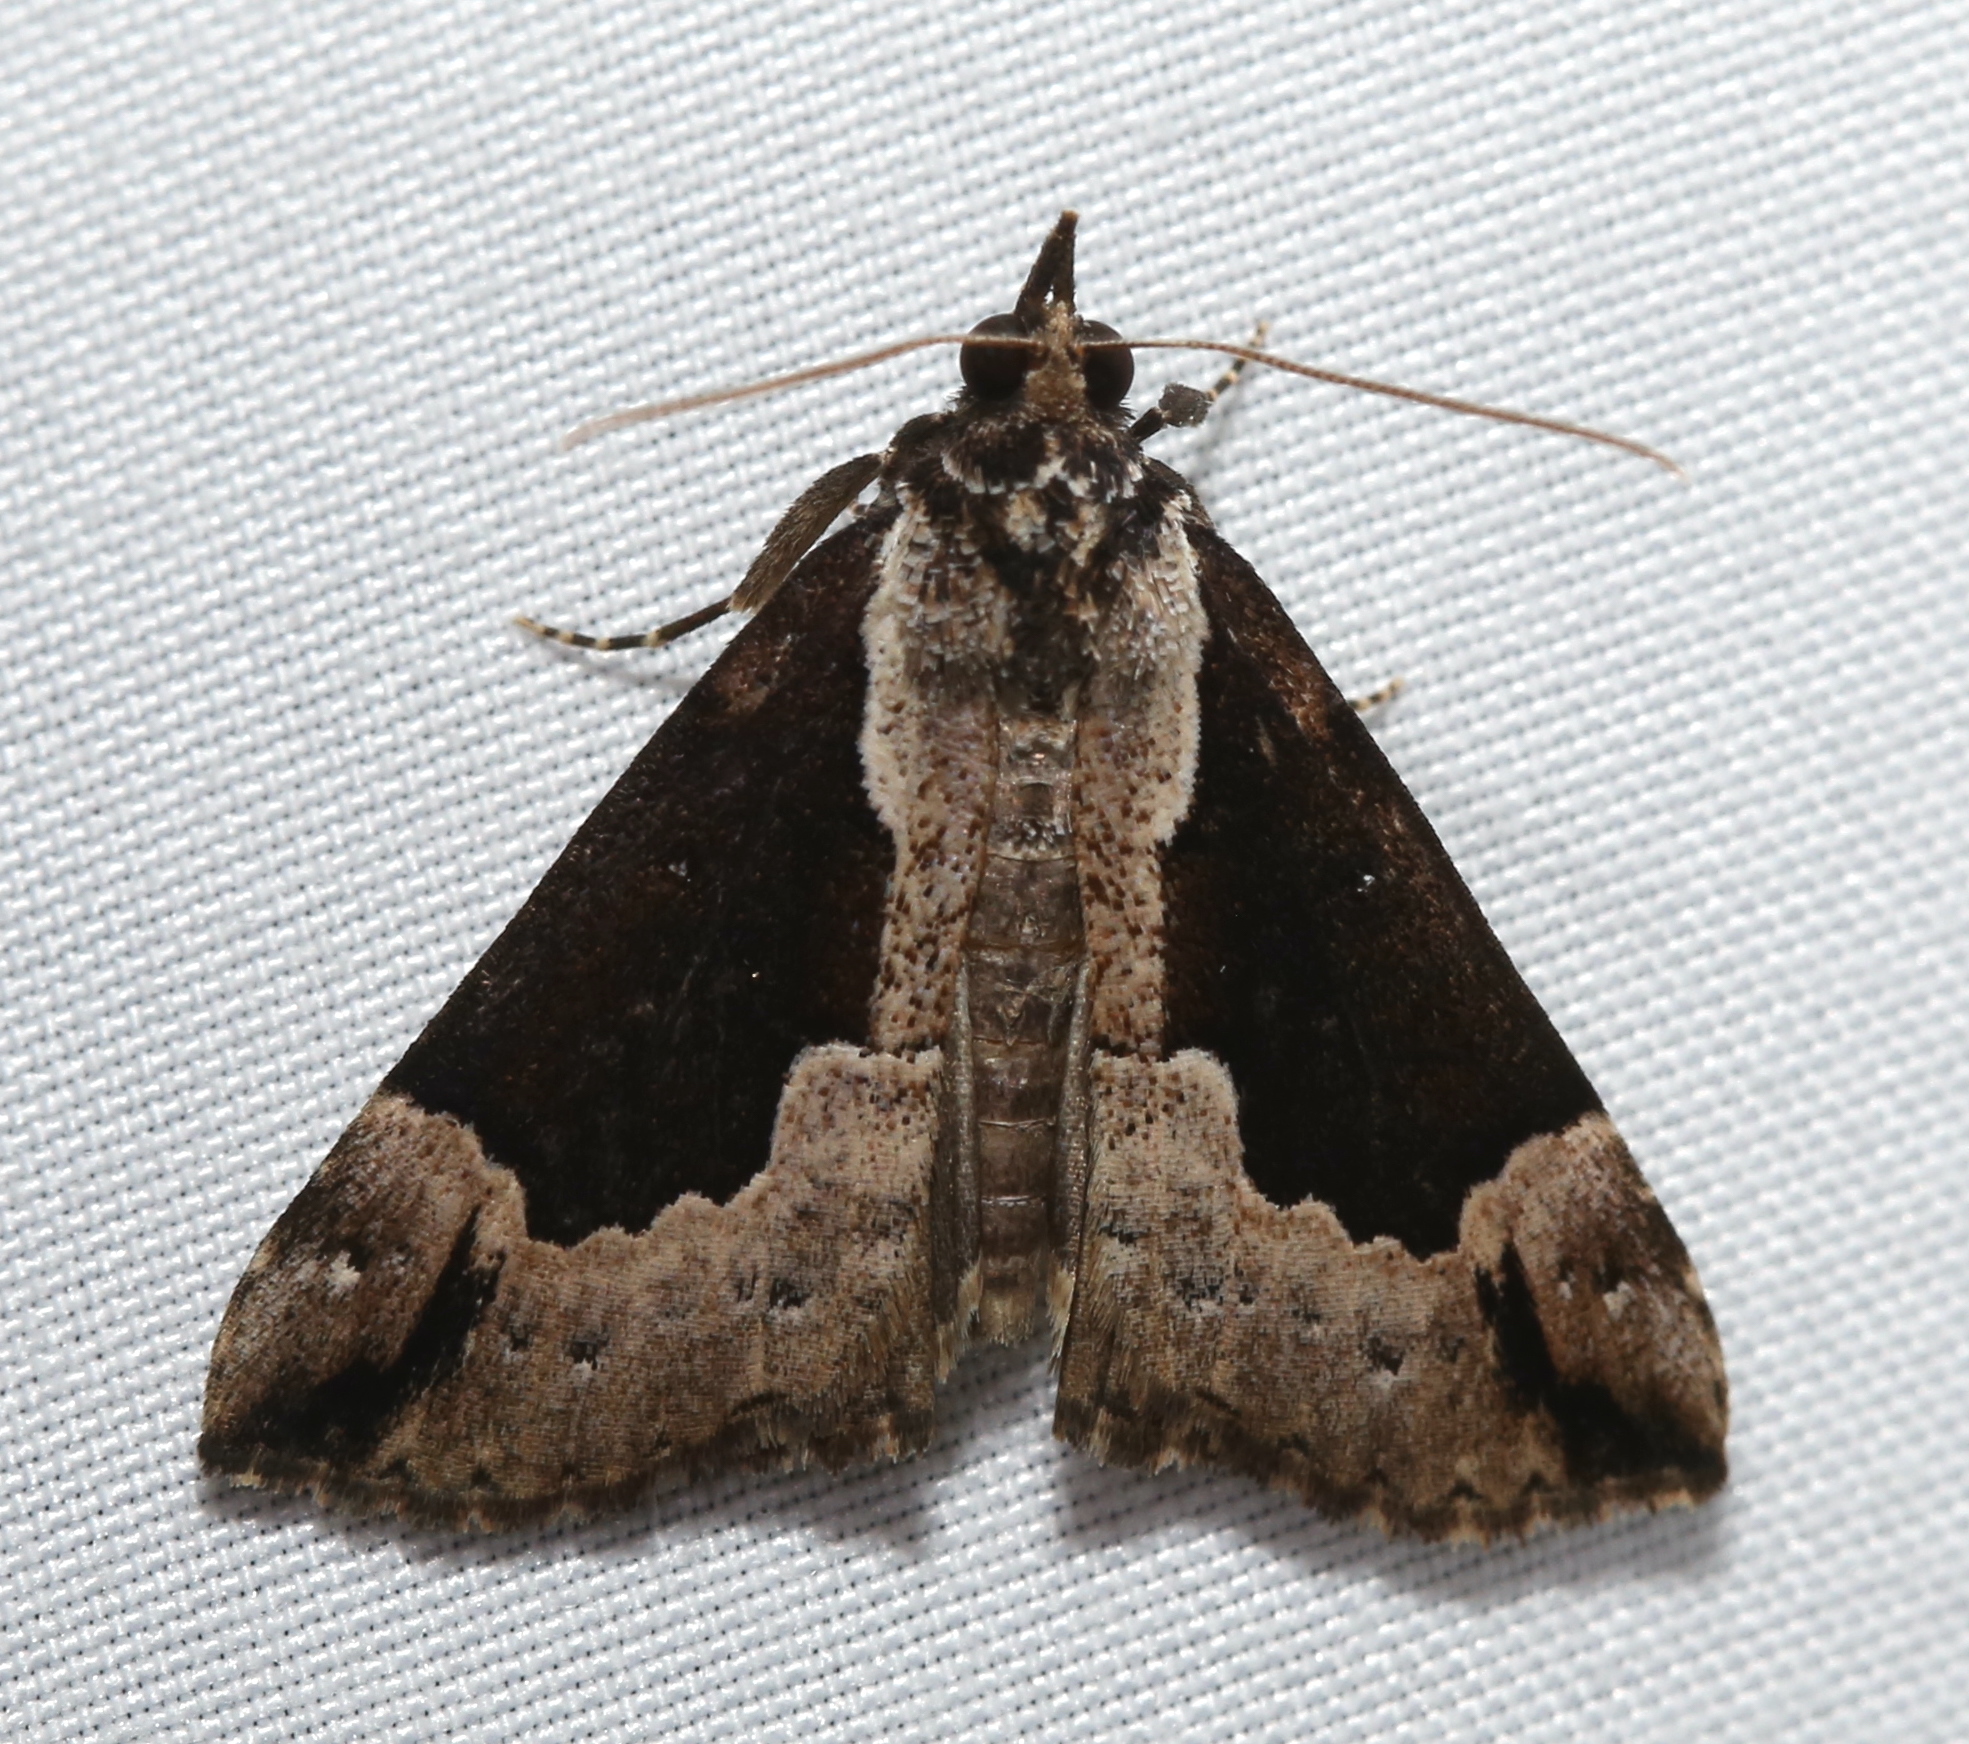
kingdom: Animalia
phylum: Arthropoda
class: Insecta
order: Lepidoptera
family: Erebidae
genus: Hypena
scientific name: Hypena baltimoralis
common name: Baltimore snout
